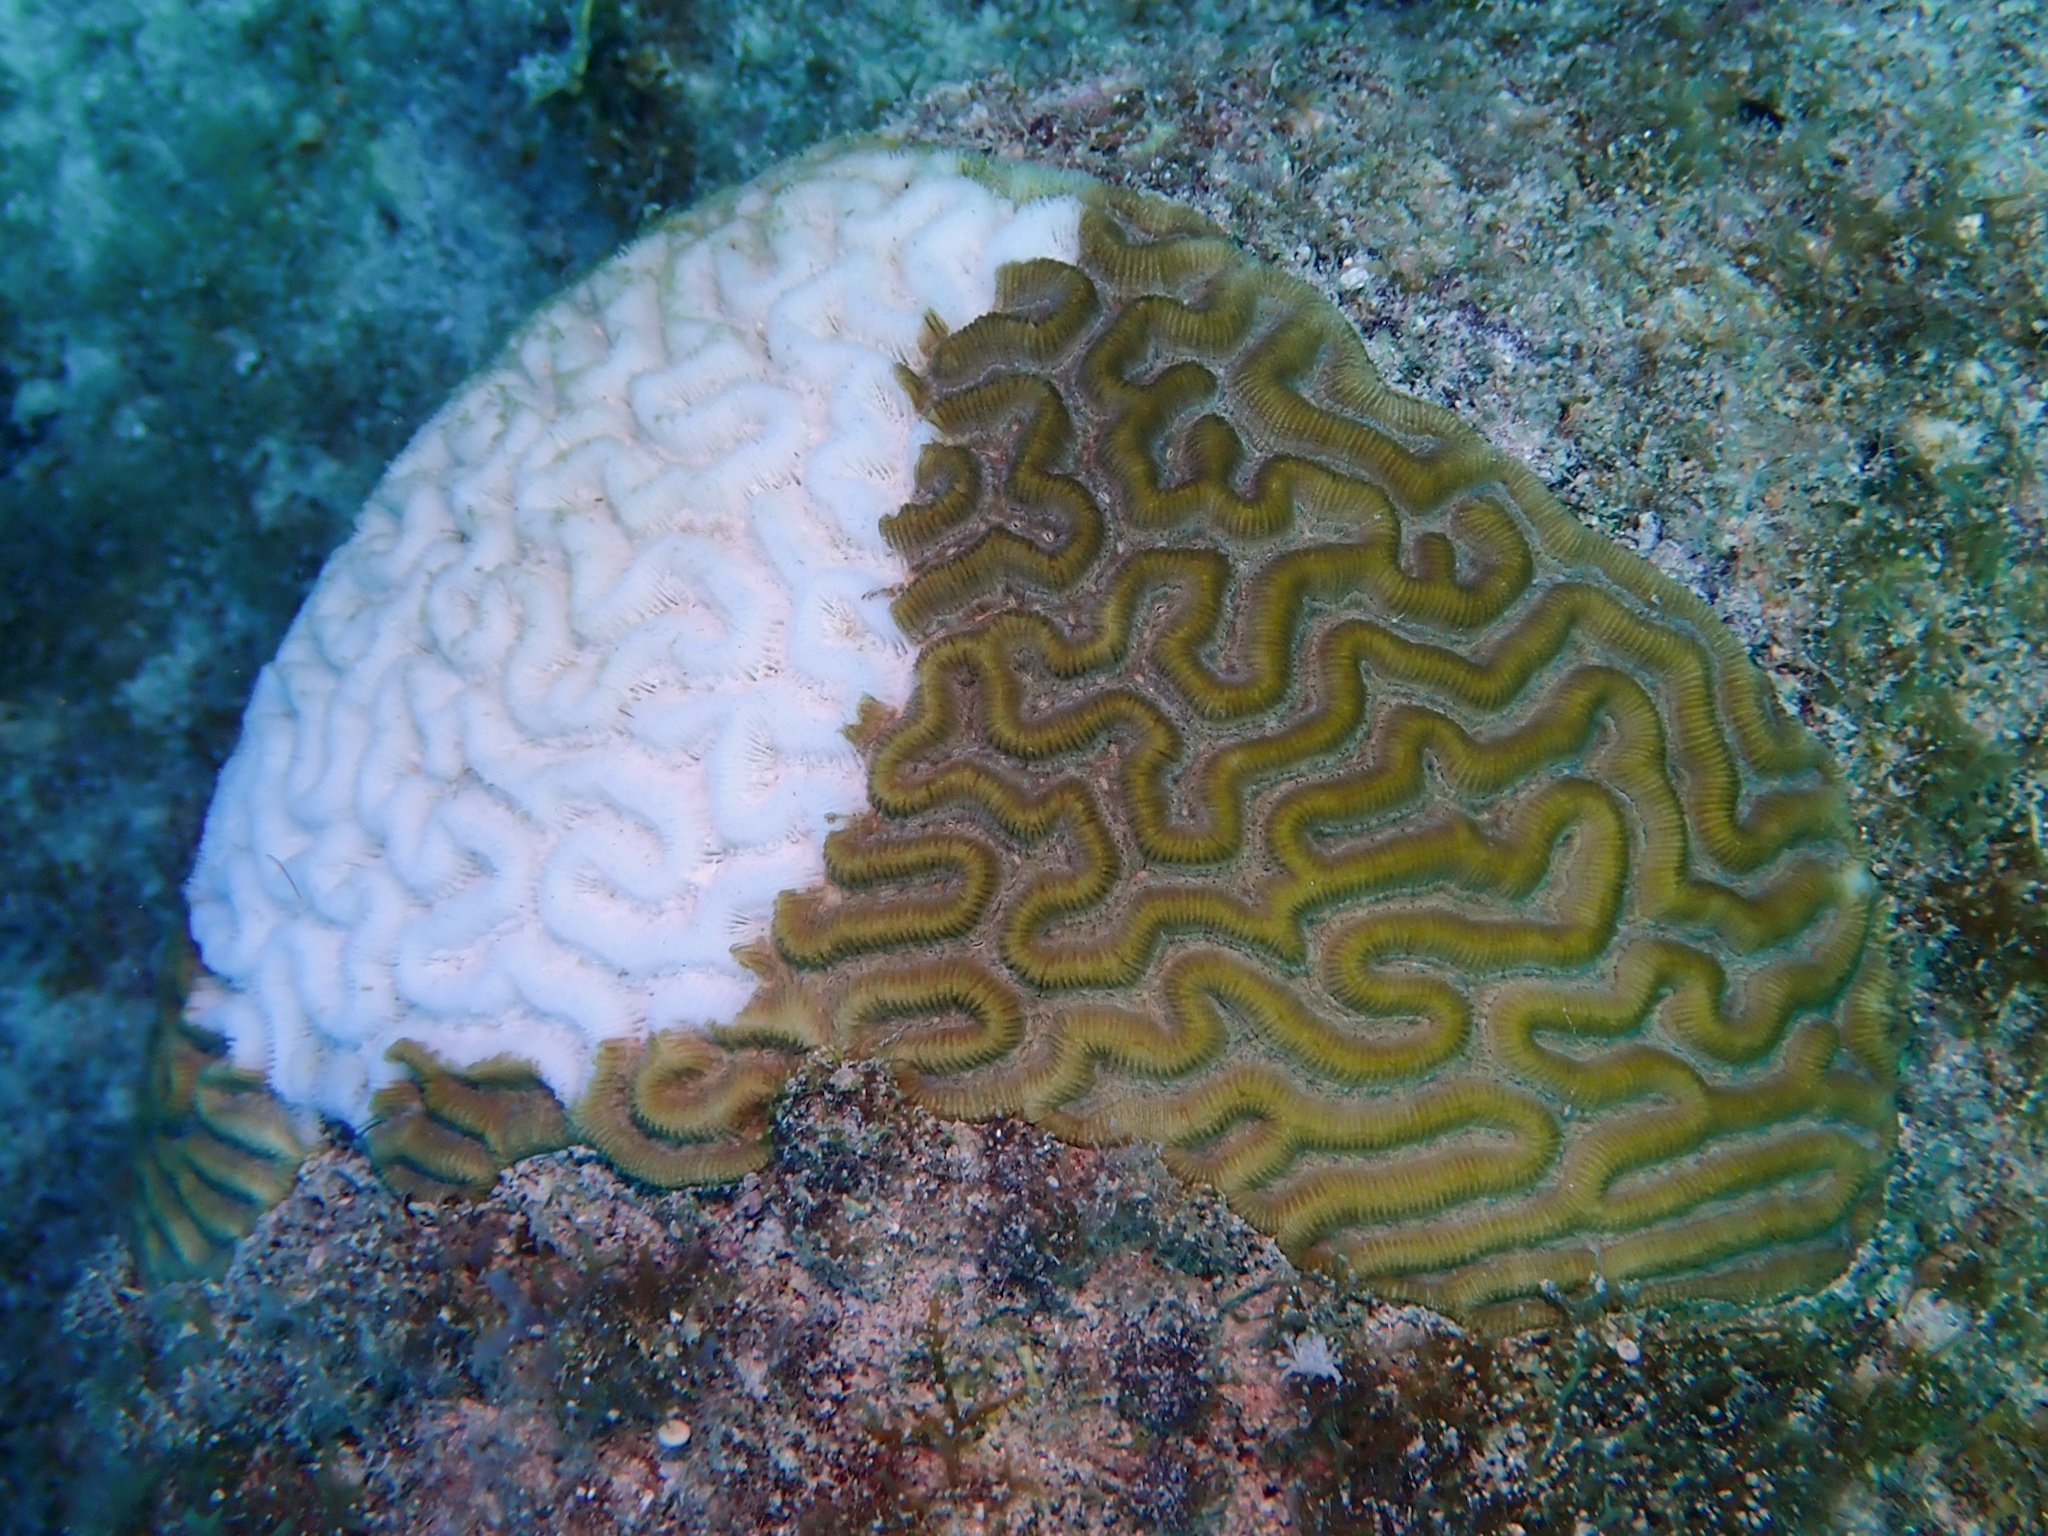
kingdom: Animalia
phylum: Cnidaria
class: Anthozoa
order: Scleractinia
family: Faviidae
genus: Pseudodiploria
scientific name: Pseudodiploria strigosa
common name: Symmetrical brain coral
